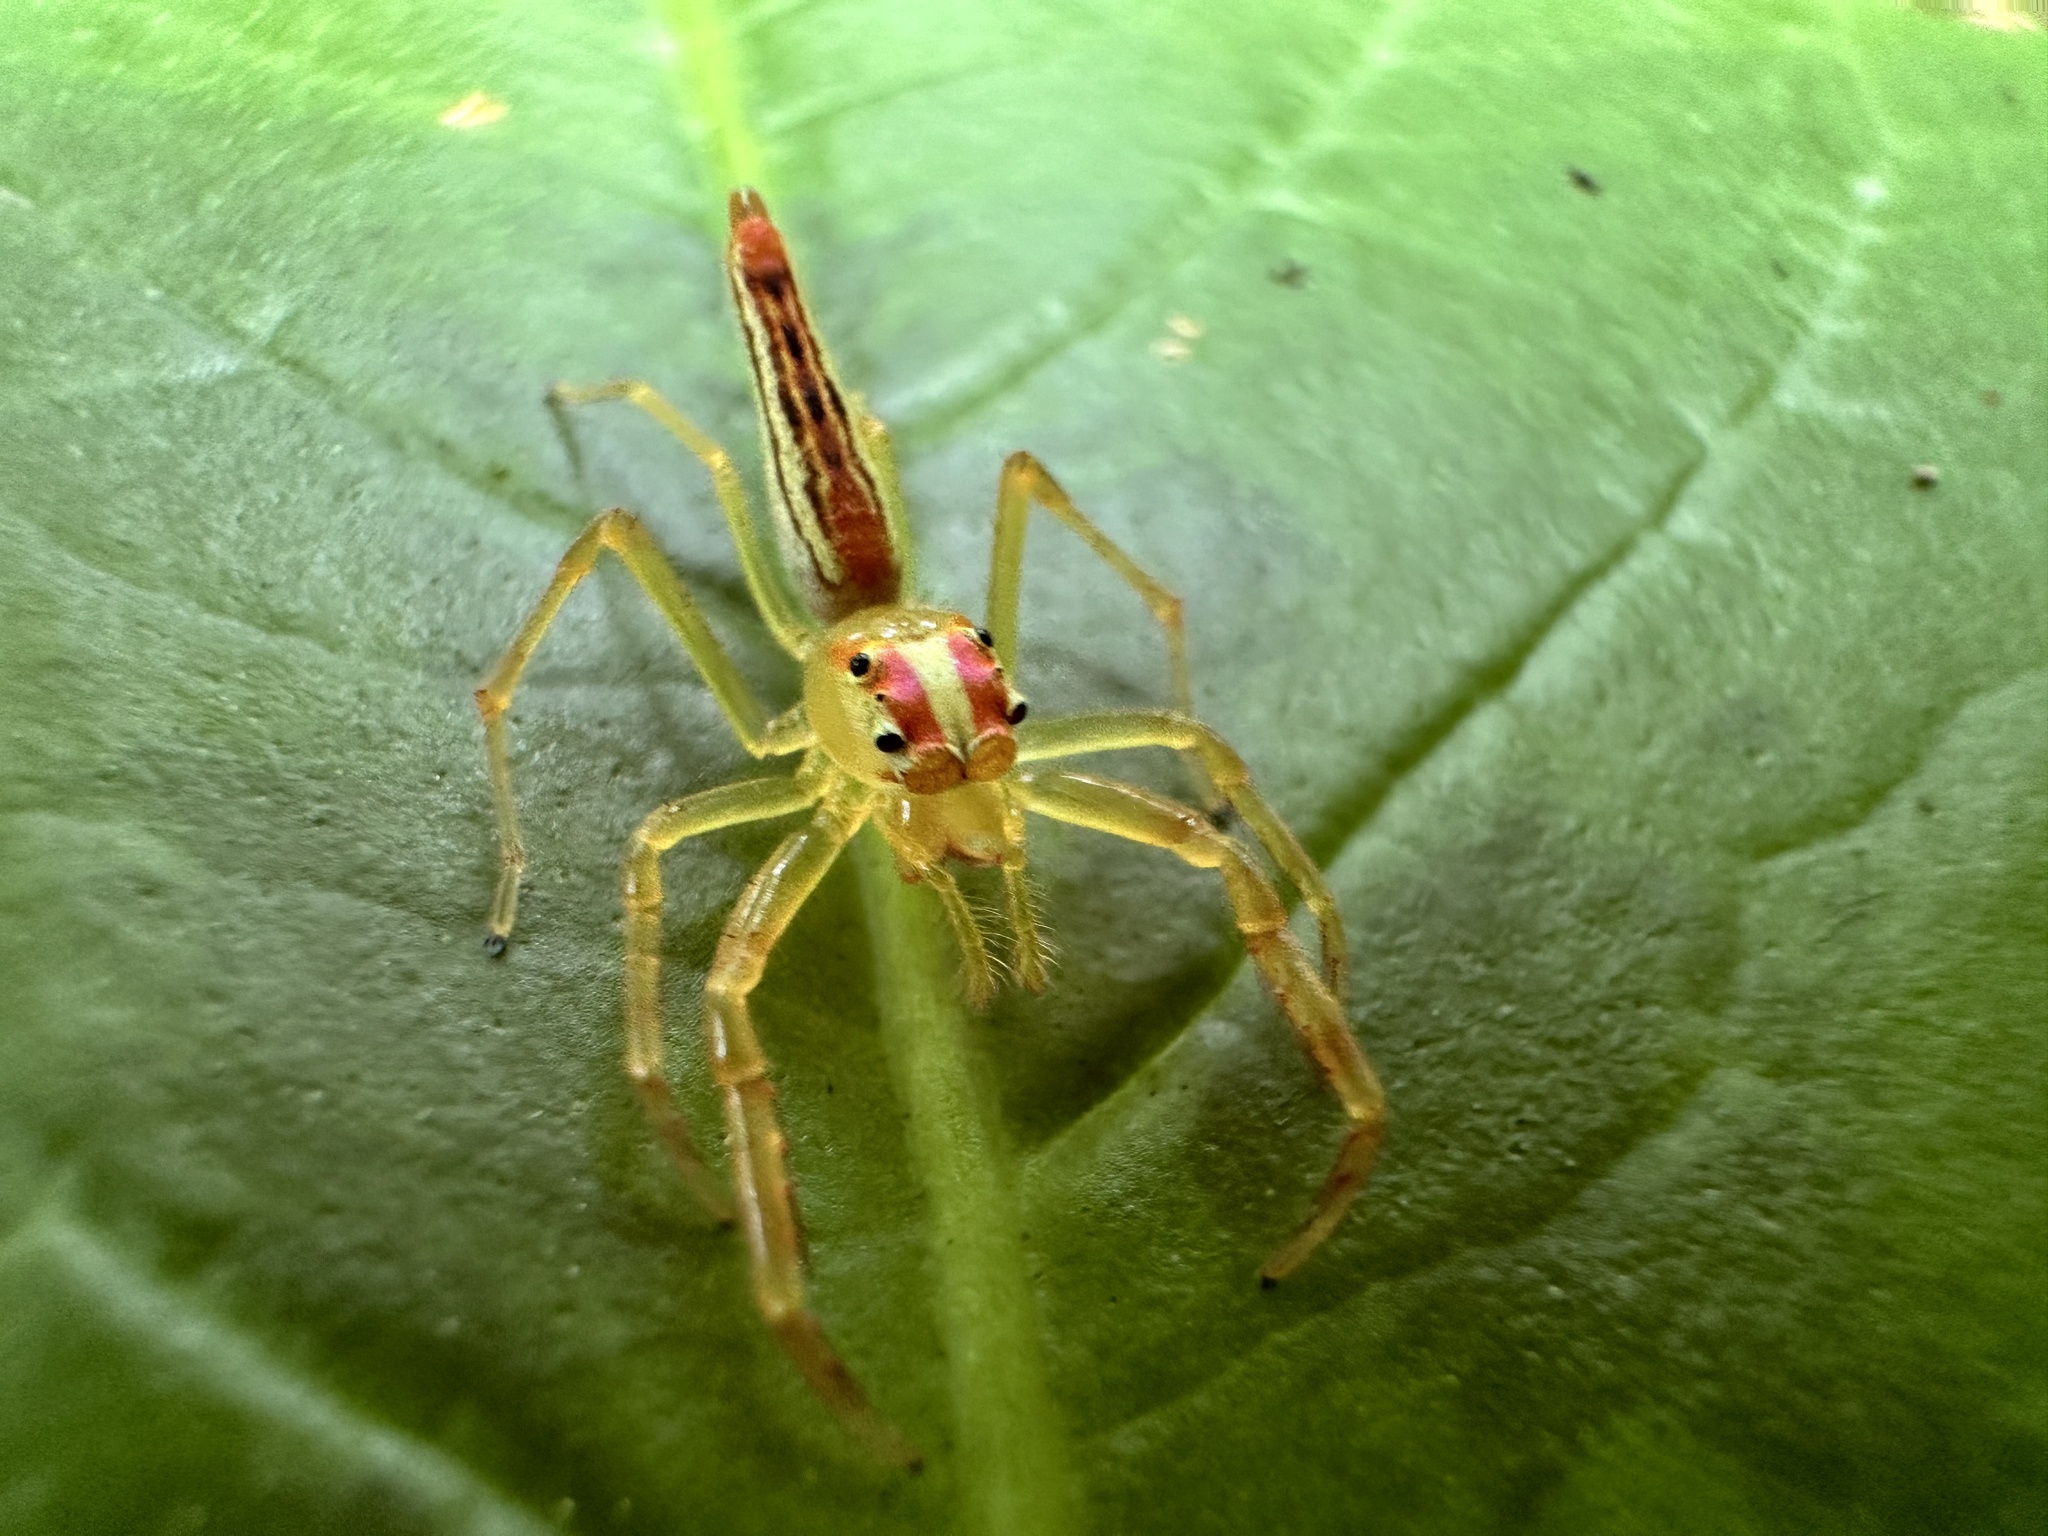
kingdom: Animalia
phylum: Arthropoda
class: Arachnida
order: Araneae
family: Salticidae
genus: Viciria
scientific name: Viciria pavesii
